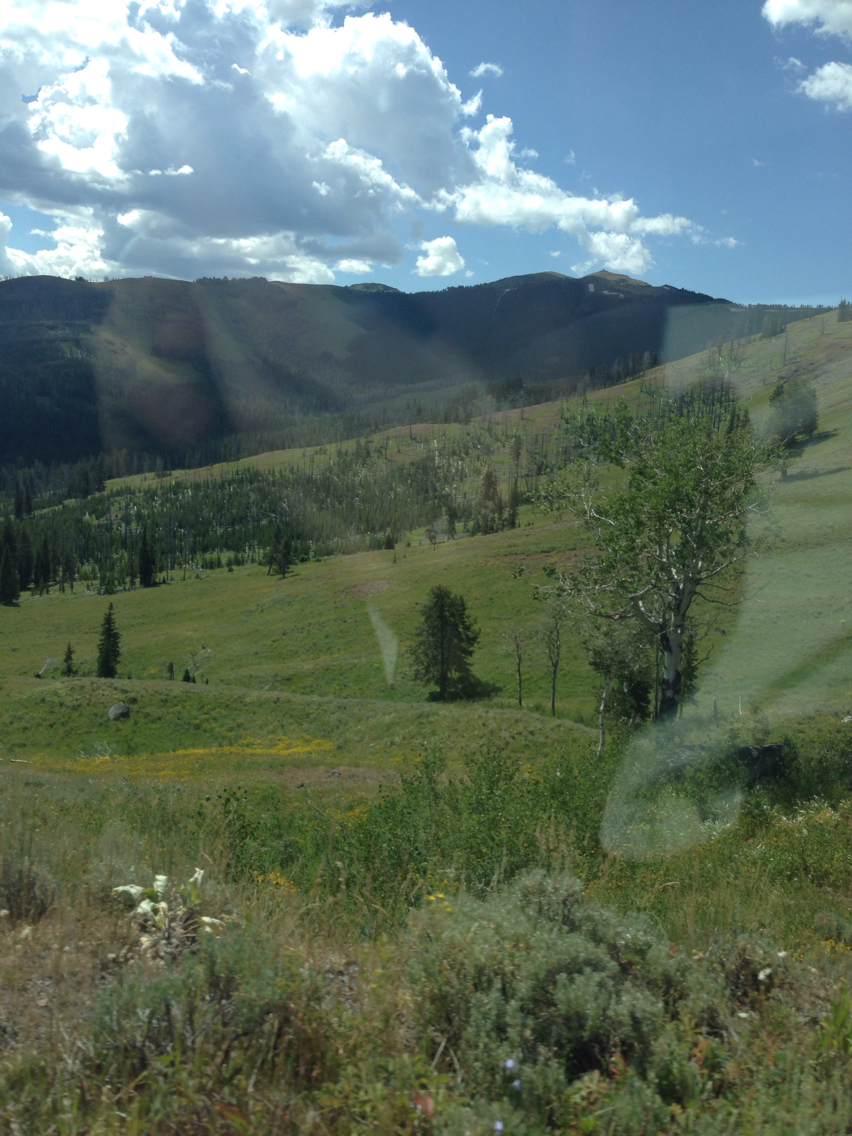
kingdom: Plantae
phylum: Tracheophyta
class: Magnoliopsida
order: Malpighiales
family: Salicaceae
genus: Populus
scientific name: Populus tremuloides
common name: Quaking aspen
